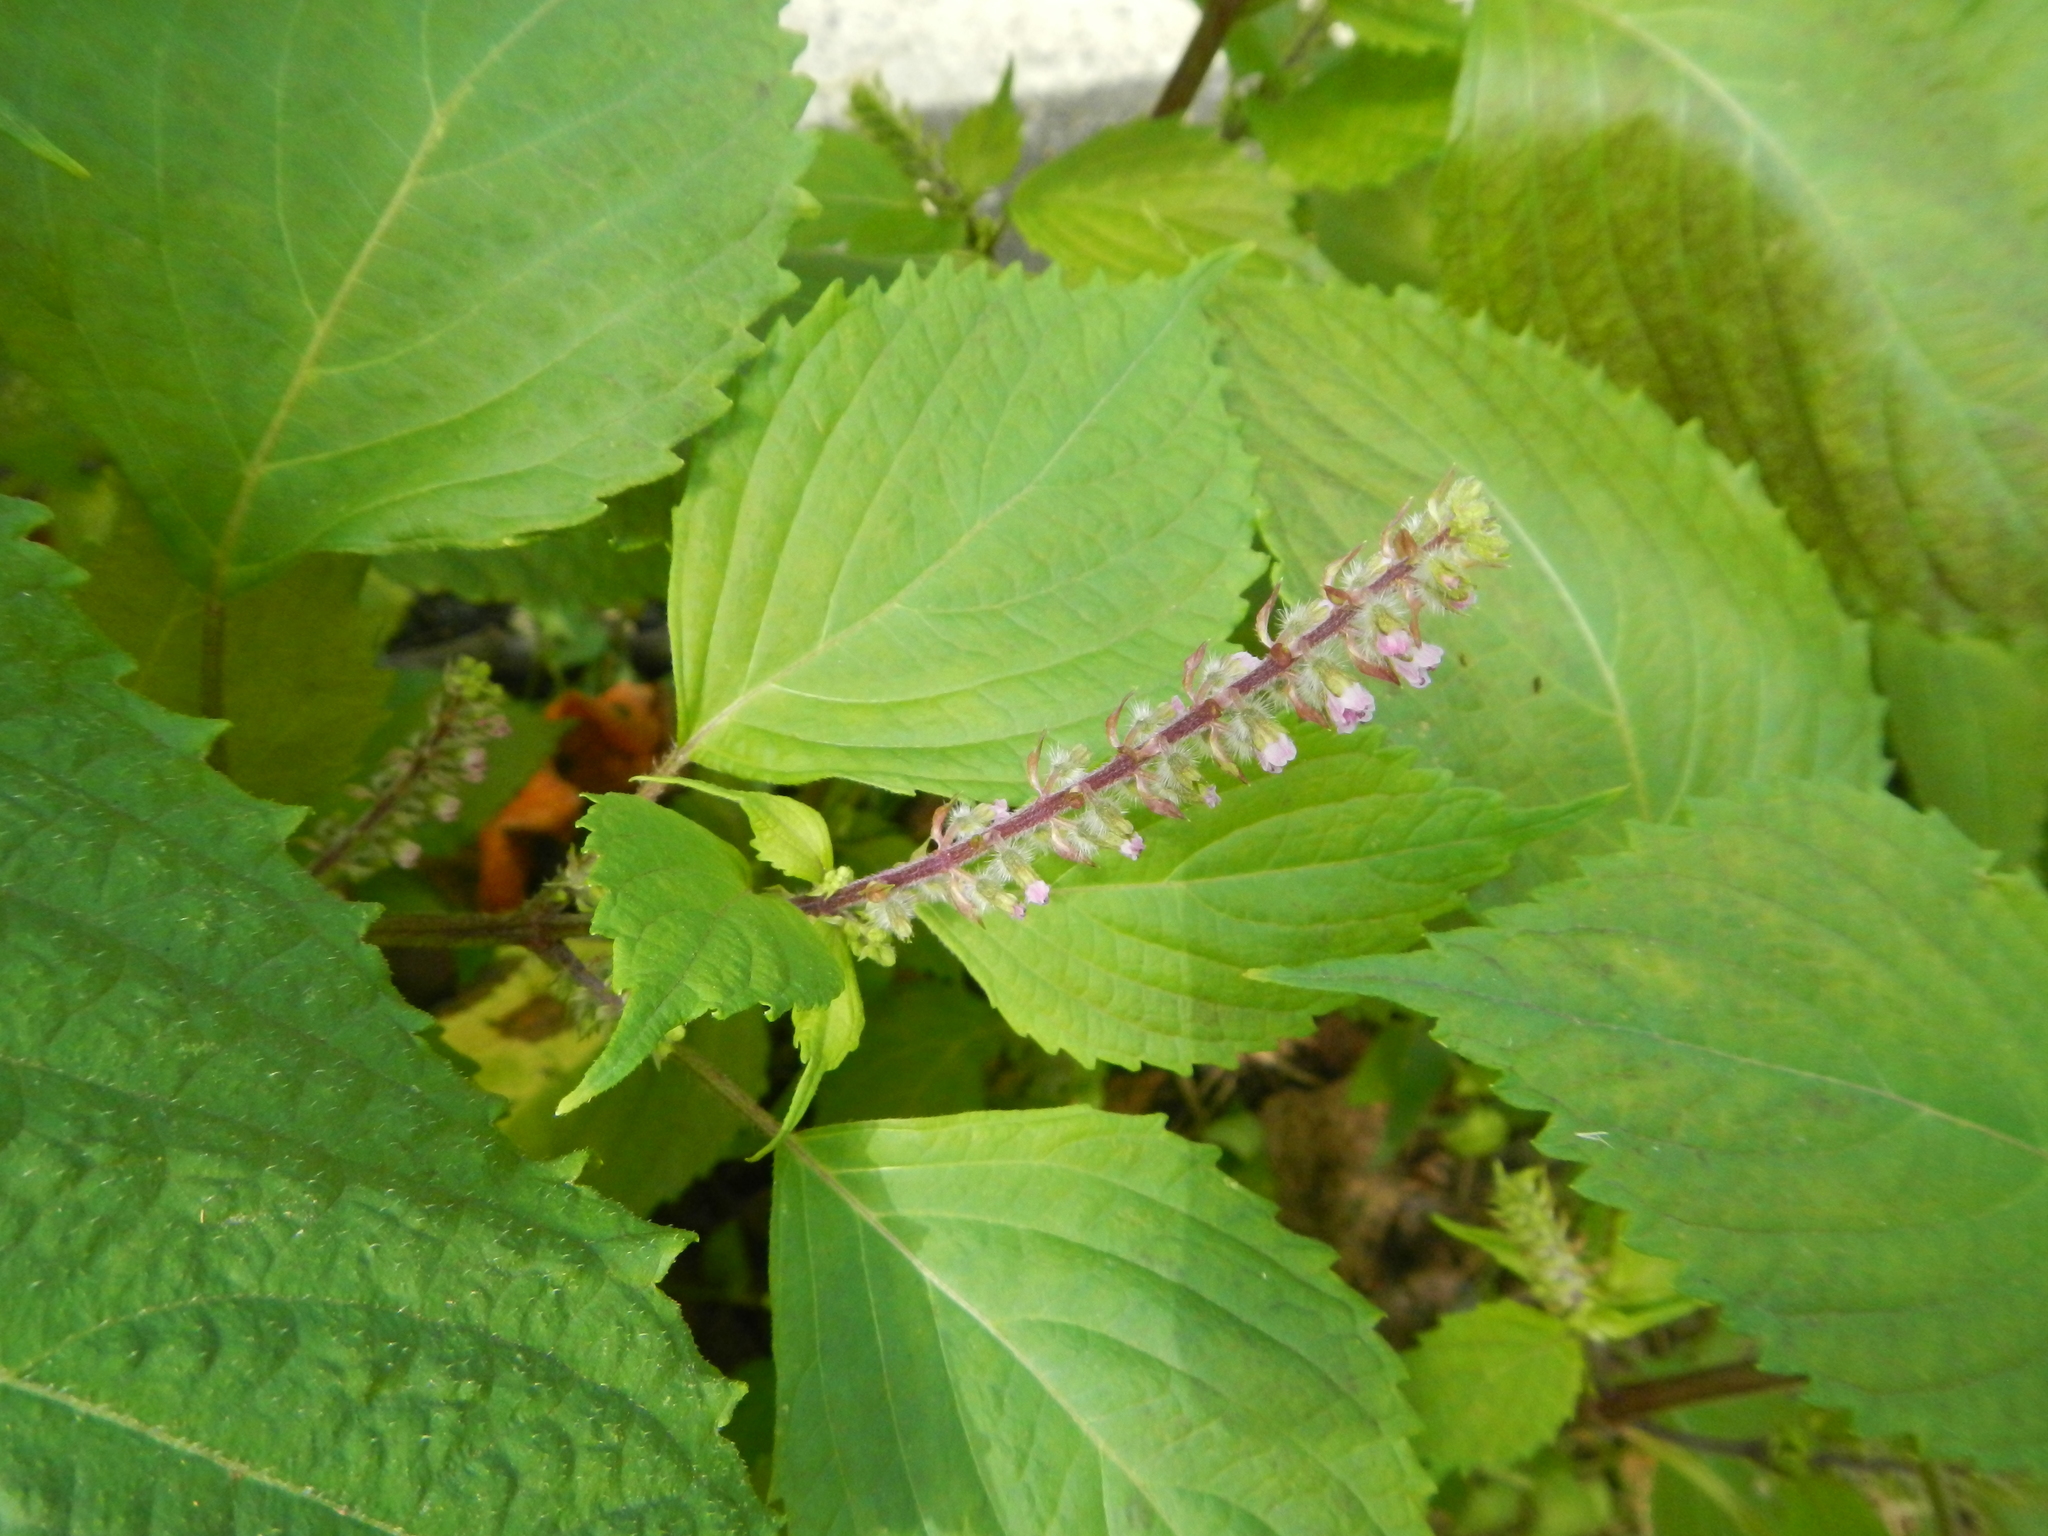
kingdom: Plantae
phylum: Tracheophyta
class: Magnoliopsida
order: Lamiales
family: Lamiaceae
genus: Perilla
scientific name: Perilla frutescens
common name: Perilla
